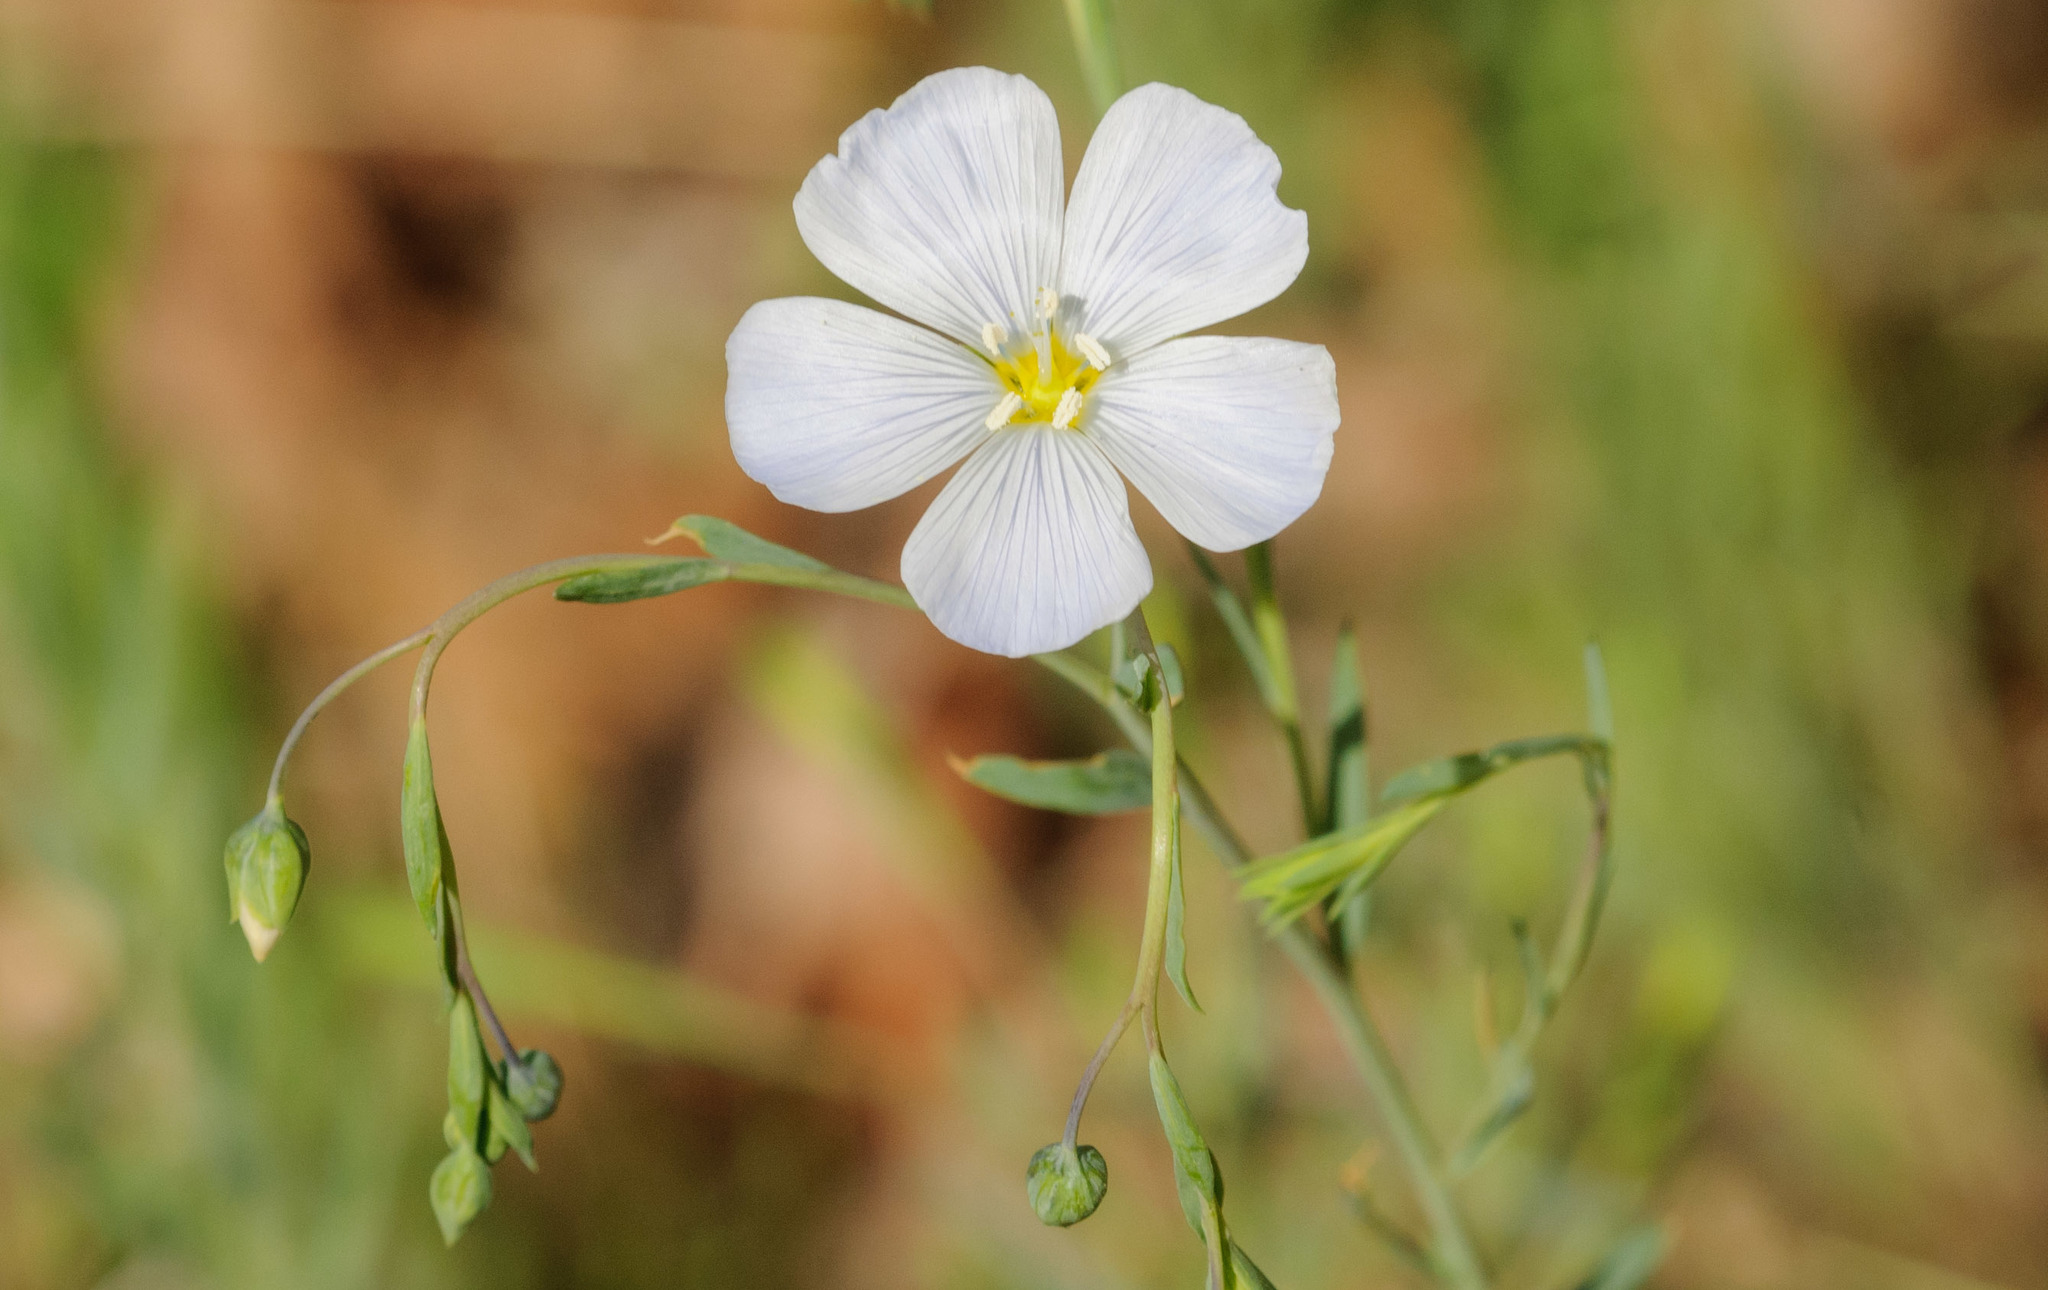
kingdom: Plantae
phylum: Tracheophyta
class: Magnoliopsida
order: Malpighiales
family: Linaceae
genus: Linum
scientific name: Linum lewisii
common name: Prairie flax
